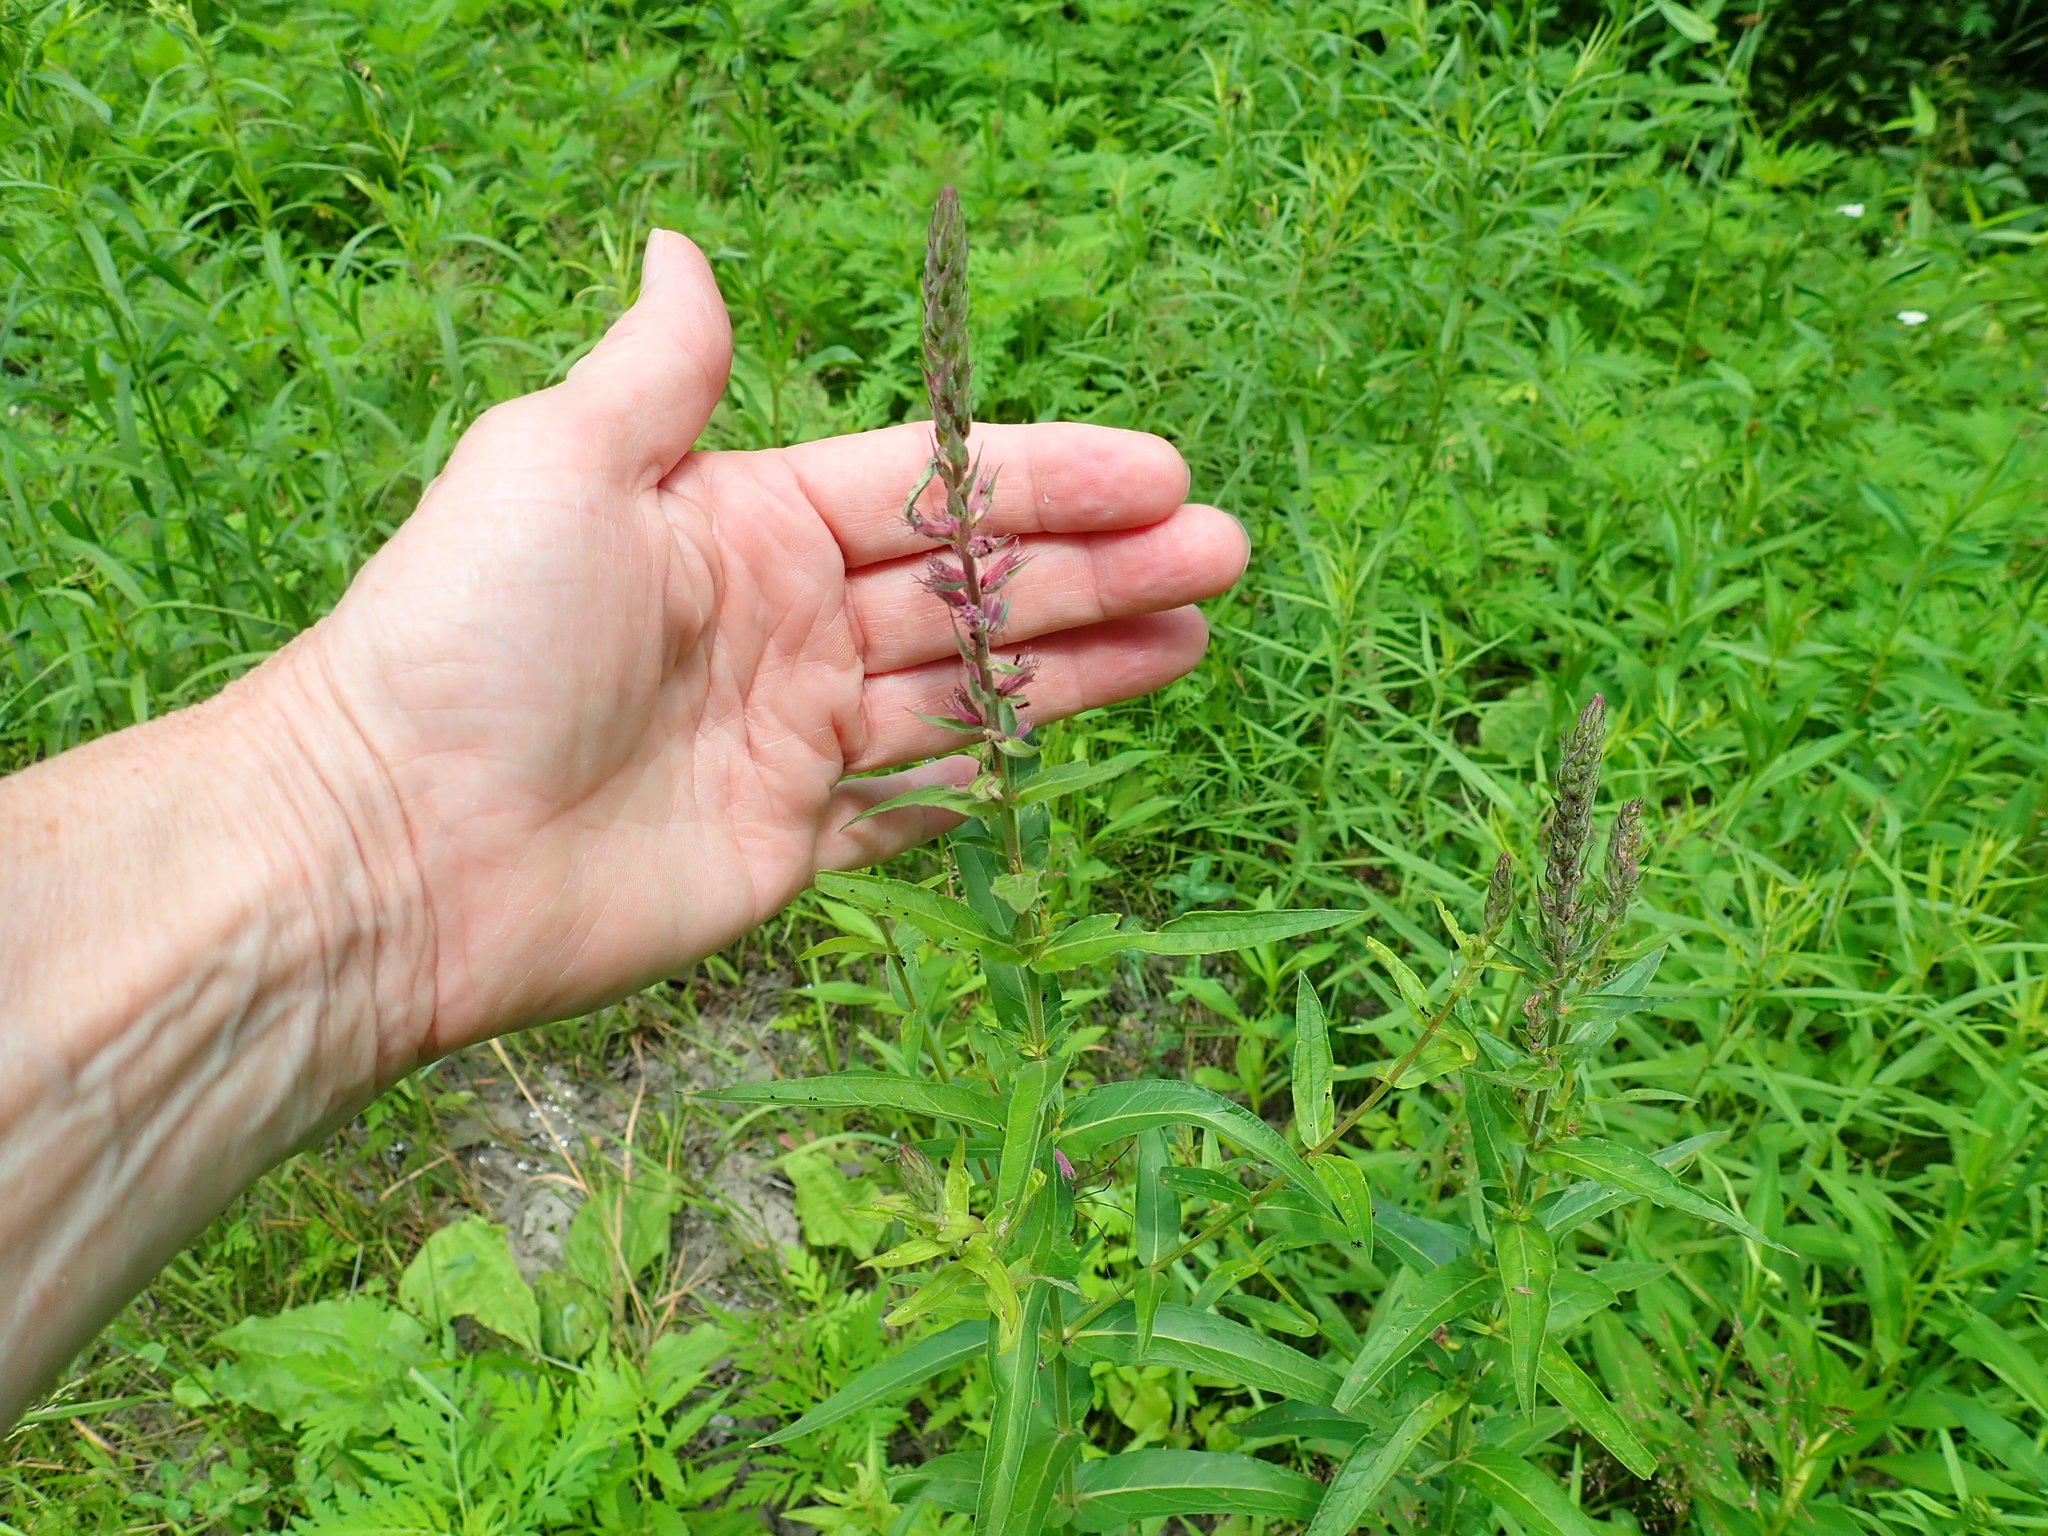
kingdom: Plantae
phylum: Tracheophyta
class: Magnoliopsida
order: Myrtales
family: Lythraceae
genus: Lythrum
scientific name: Lythrum salicaria
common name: Purple loosestrife
